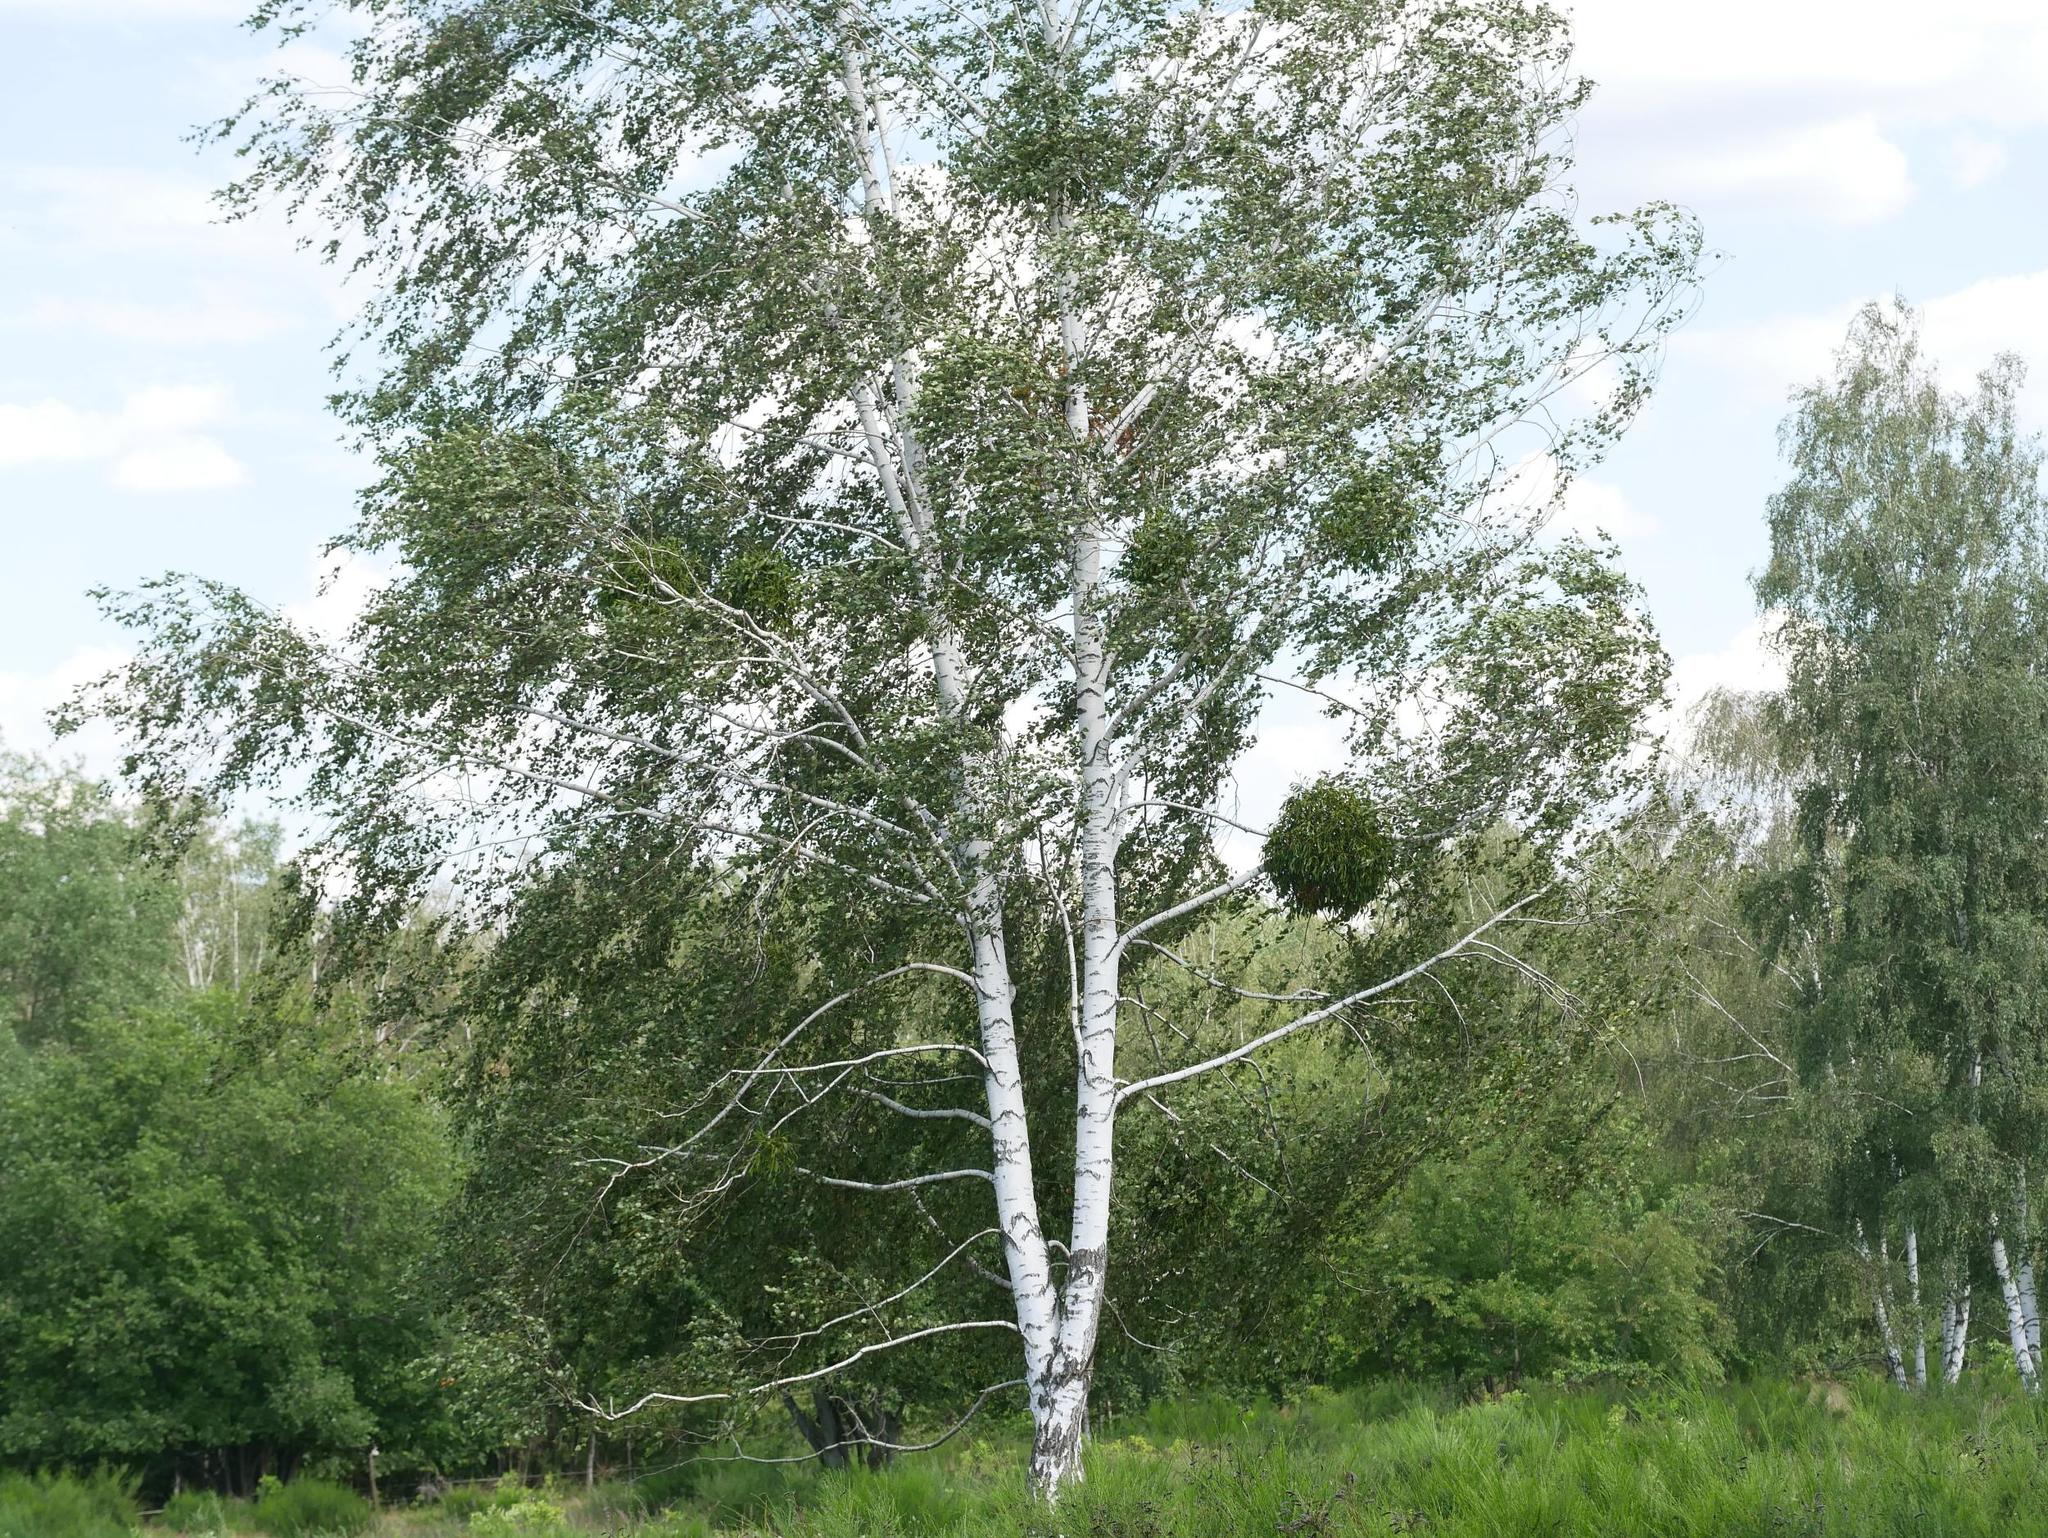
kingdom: Plantae
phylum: Tracheophyta
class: Magnoliopsida
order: Santalales
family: Viscaceae
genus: Viscum
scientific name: Viscum album
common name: Mistletoe
